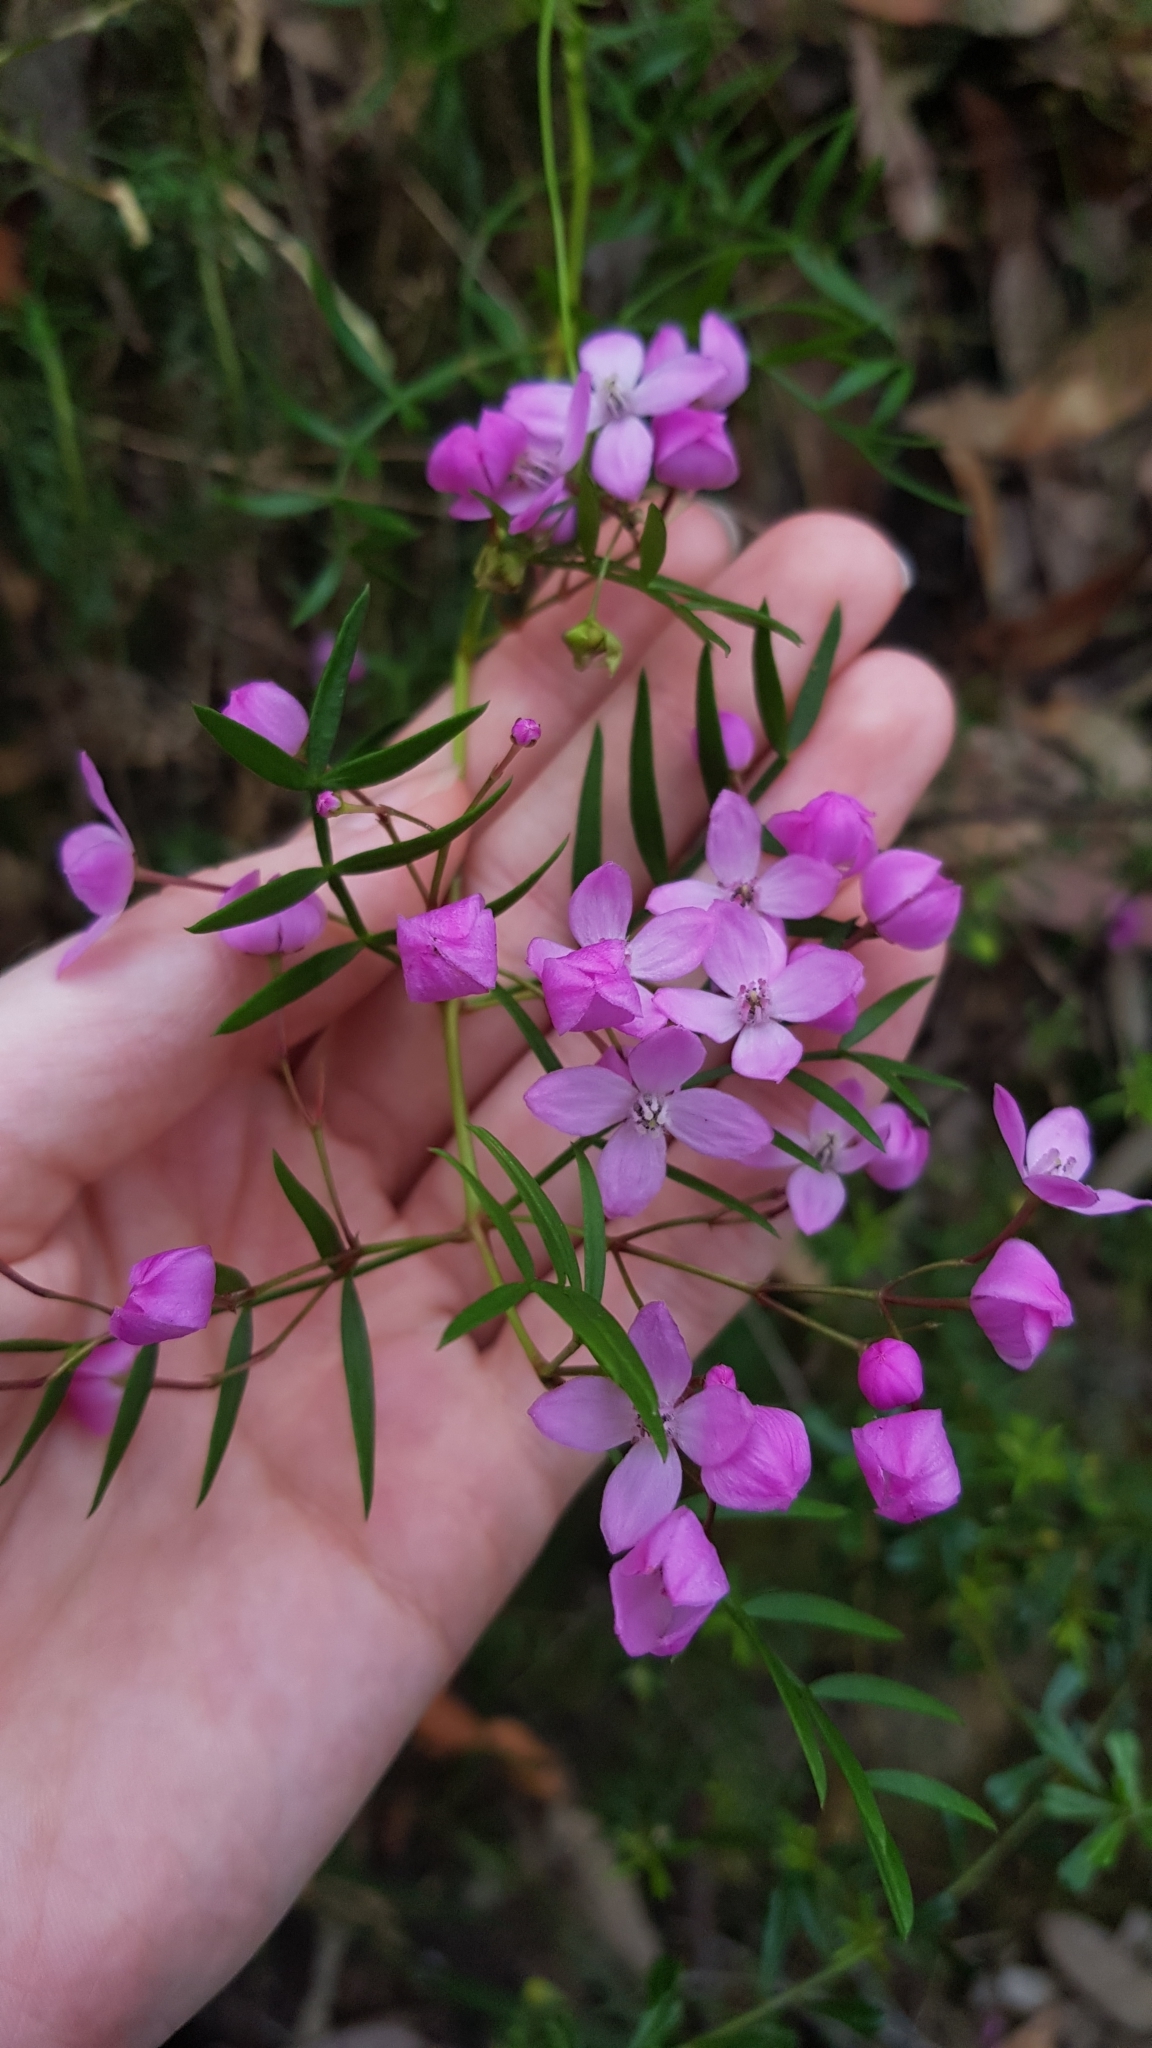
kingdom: Plantae
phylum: Tracheophyta
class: Magnoliopsida
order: Sapindales
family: Rutaceae
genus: Boronia
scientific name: Boronia pinnata
